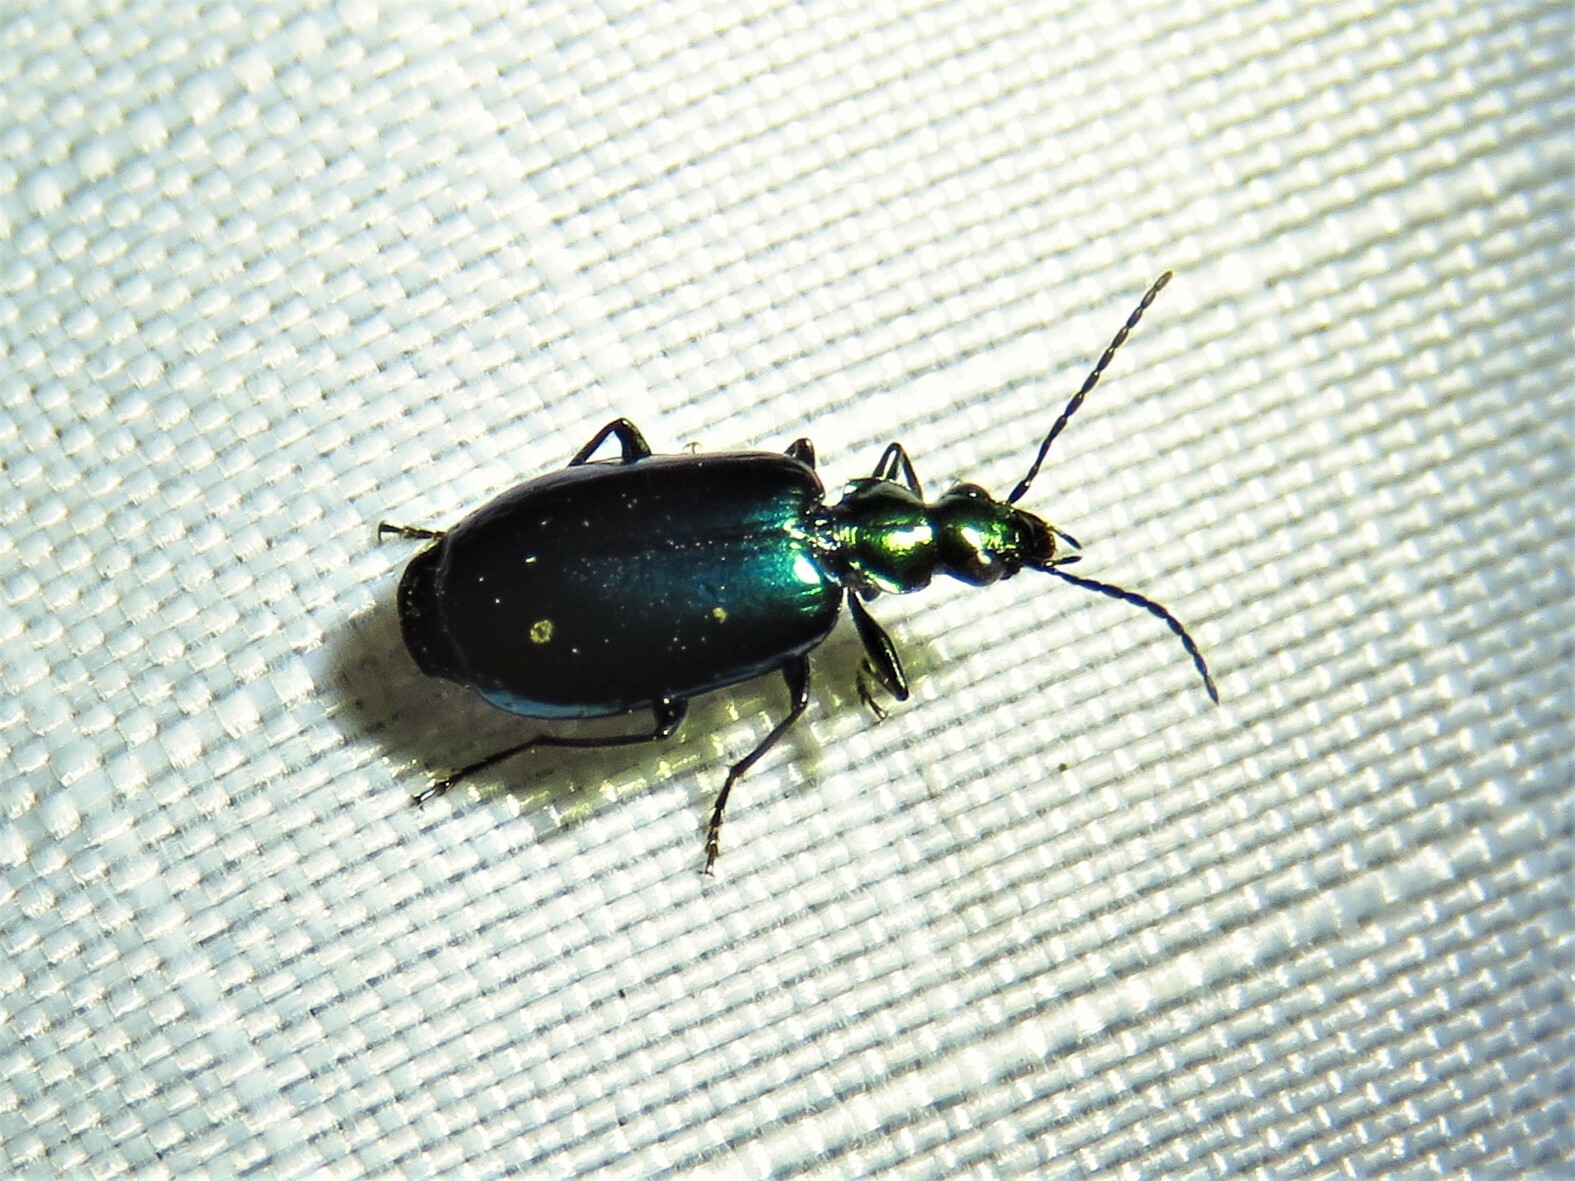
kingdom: Animalia
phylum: Arthropoda
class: Insecta
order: Coleoptera
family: Carabidae
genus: Lebia
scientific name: Lebia viridis
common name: Flower lebia beetle
